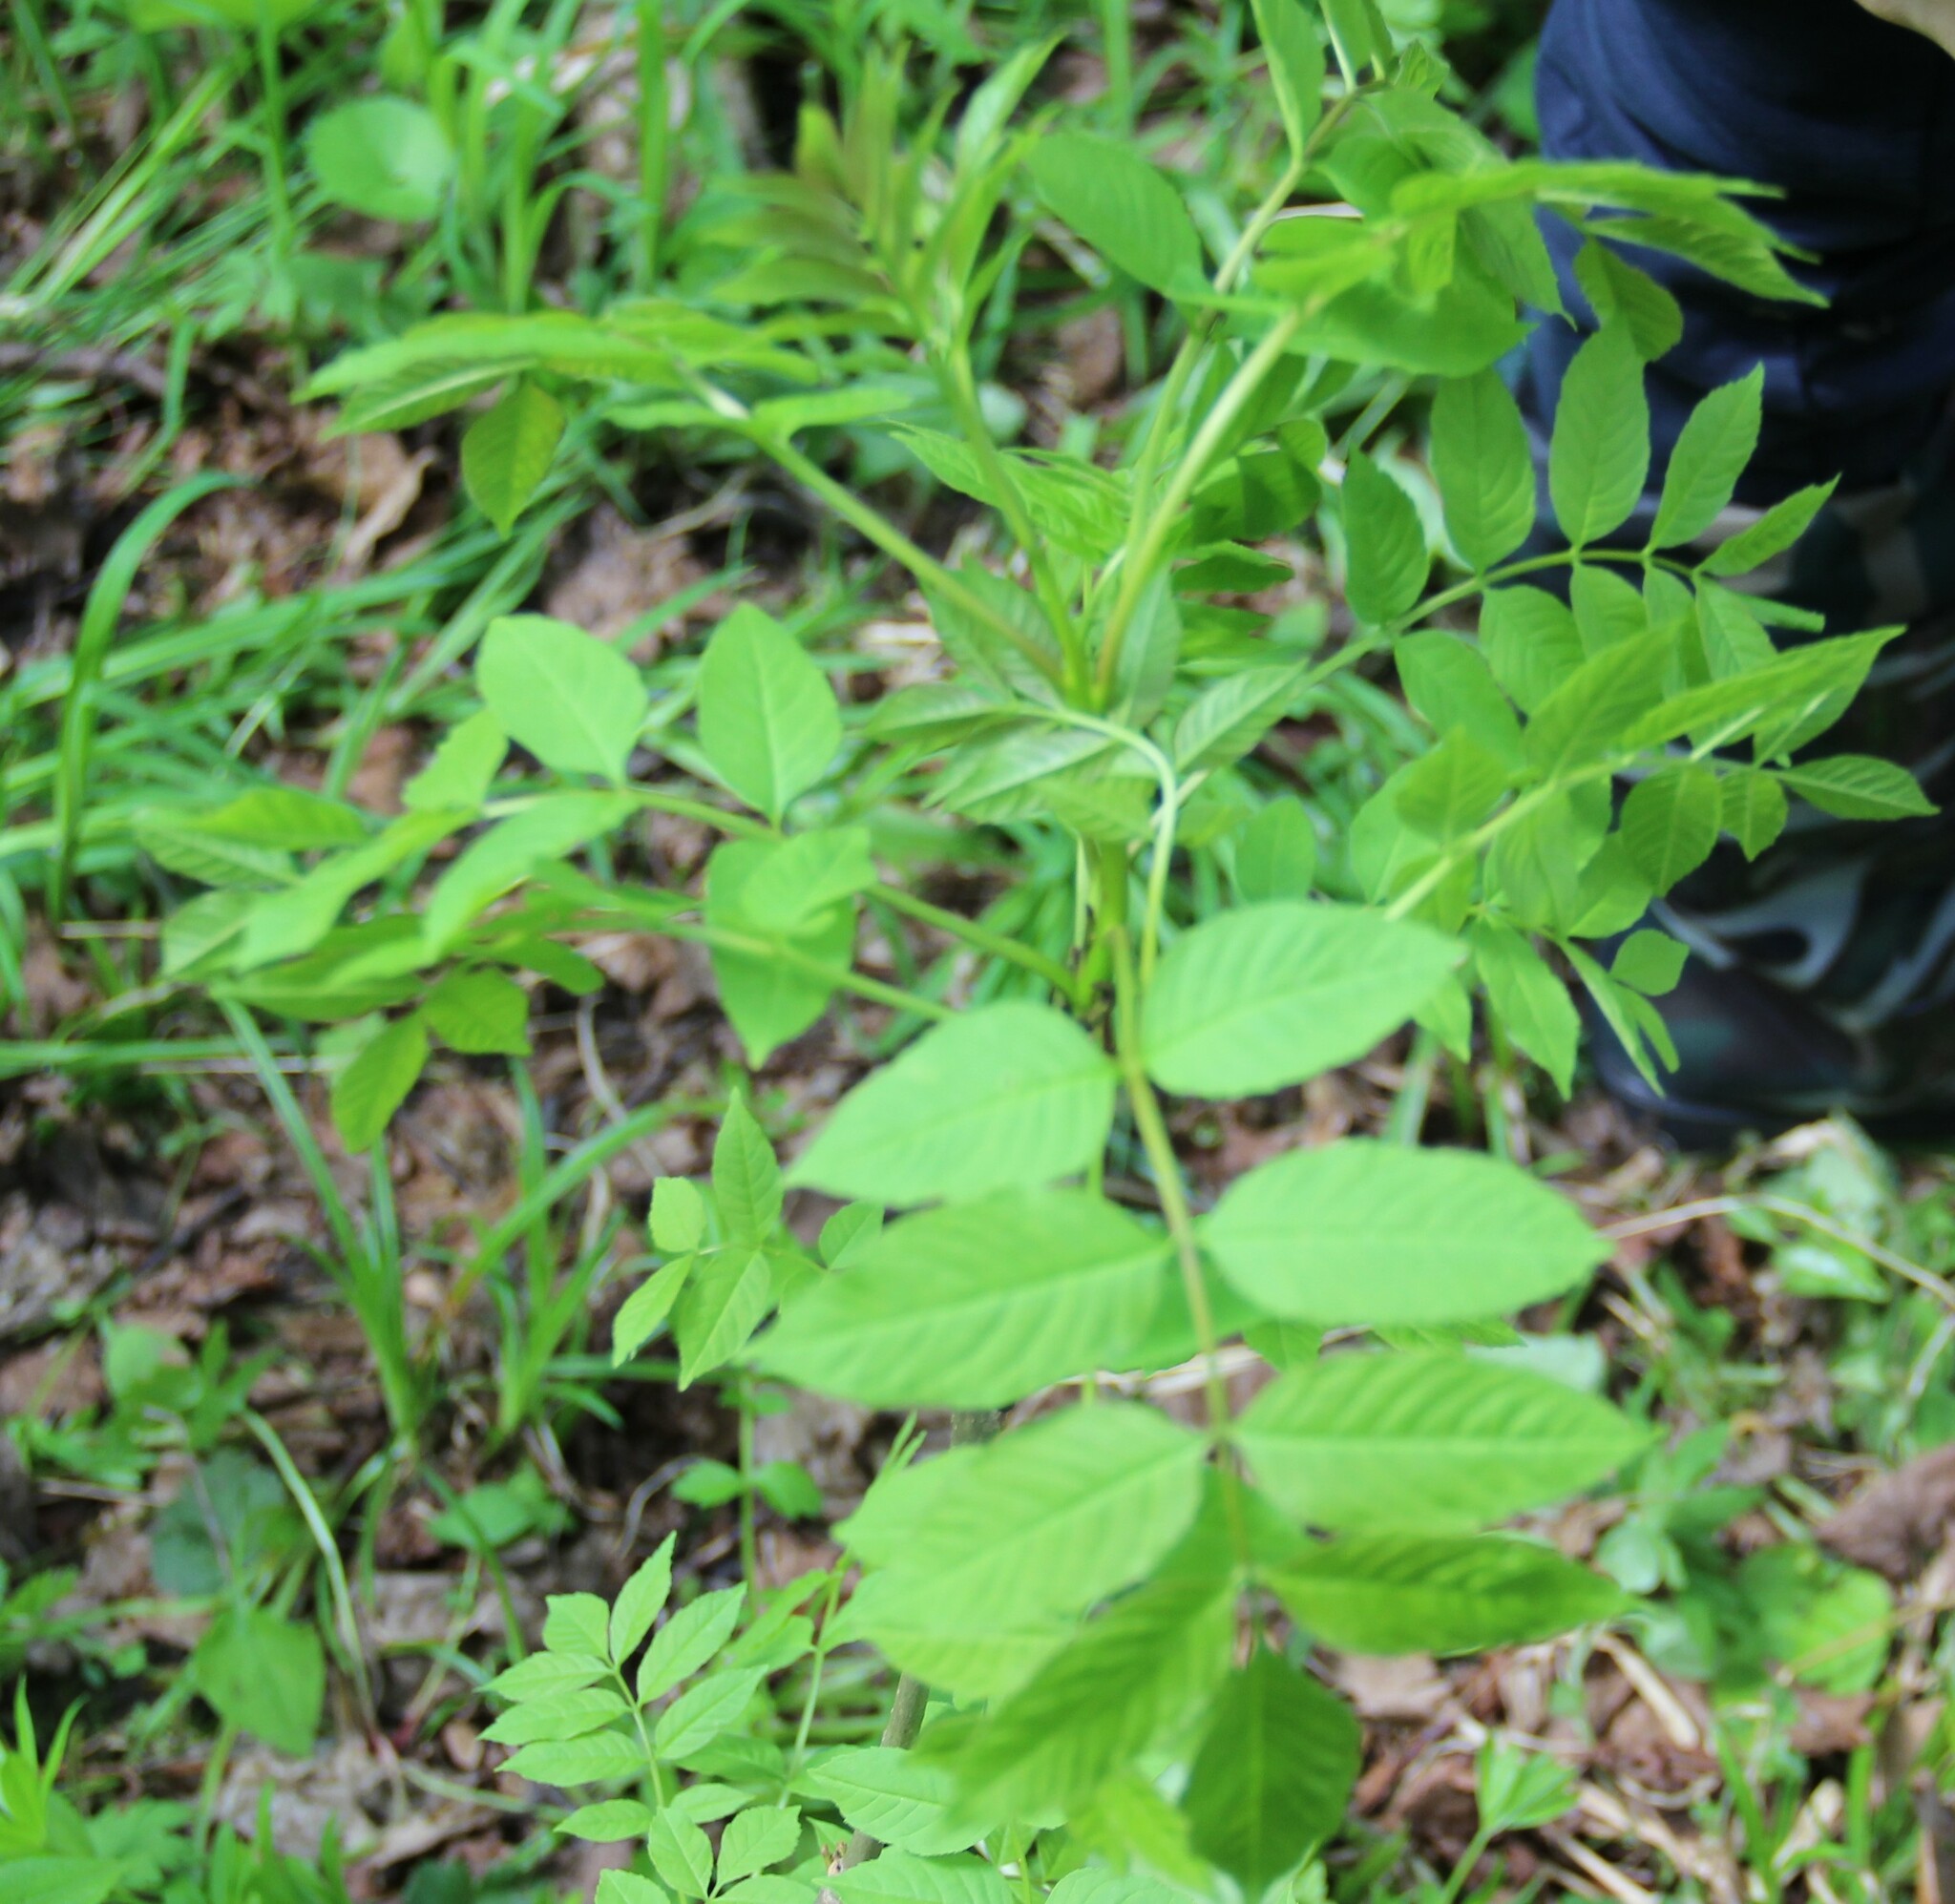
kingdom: Plantae
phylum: Tracheophyta
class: Magnoliopsida
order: Lamiales
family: Oleaceae
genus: Fraxinus
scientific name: Fraxinus excelsior
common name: European ash
